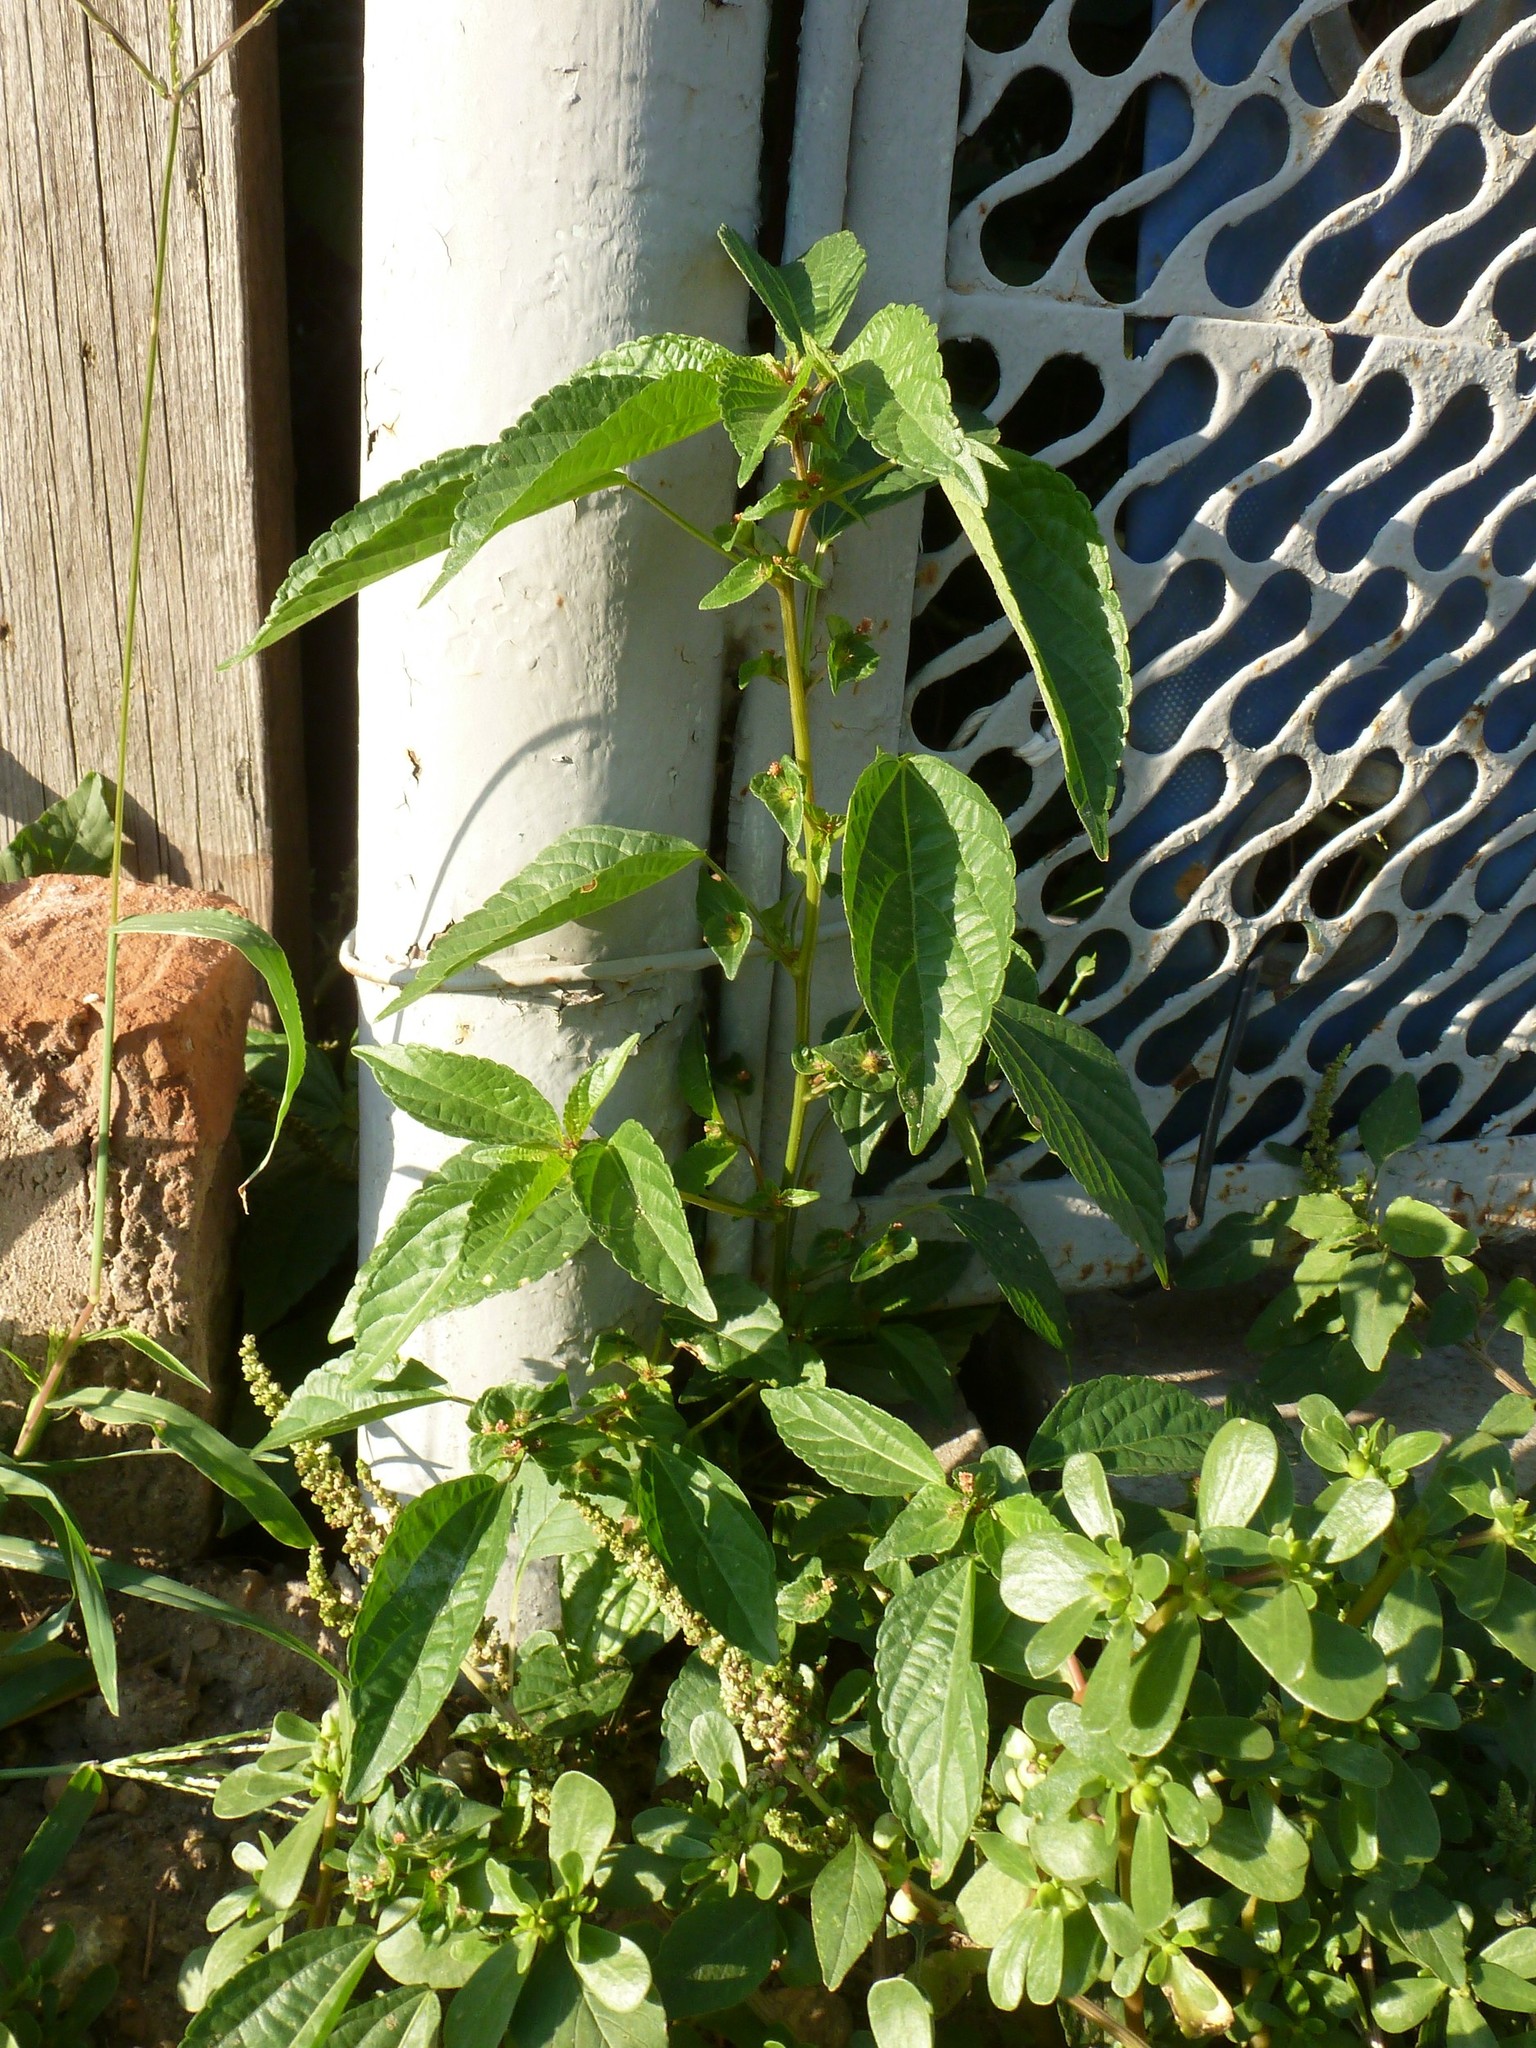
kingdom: Plantae
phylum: Tracheophyta
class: Magnoliopsida
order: Malpighiales
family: Euphorbiaceae
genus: Acalypha
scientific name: Acalypha australis
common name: Asian copperleaf
